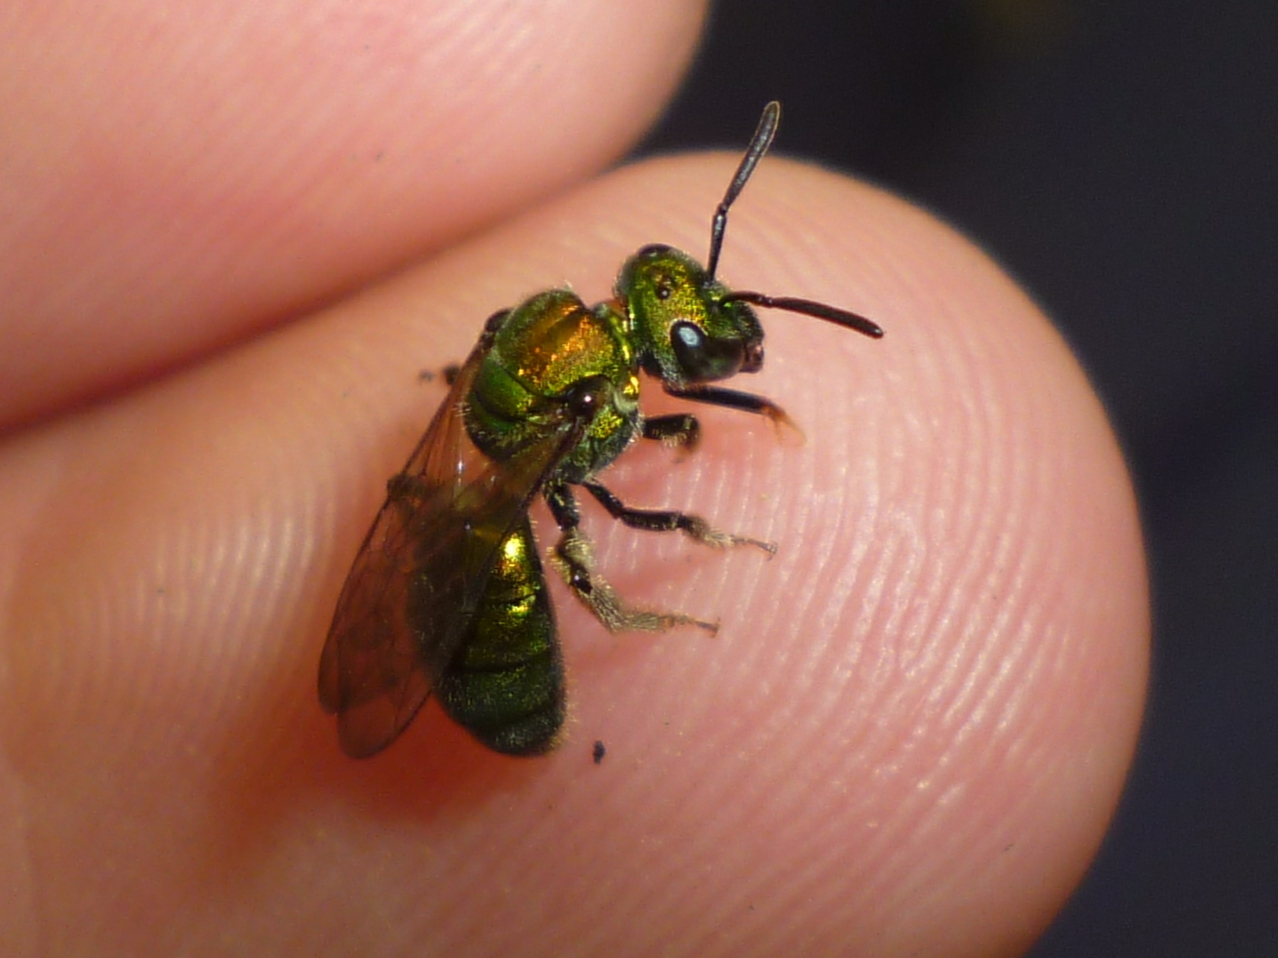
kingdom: Animalia
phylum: Arthropoda
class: Insecta
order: Hymenoptera
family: Halictidae
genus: Augochlora
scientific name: Augochlora pura
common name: Pure green sweat bee
